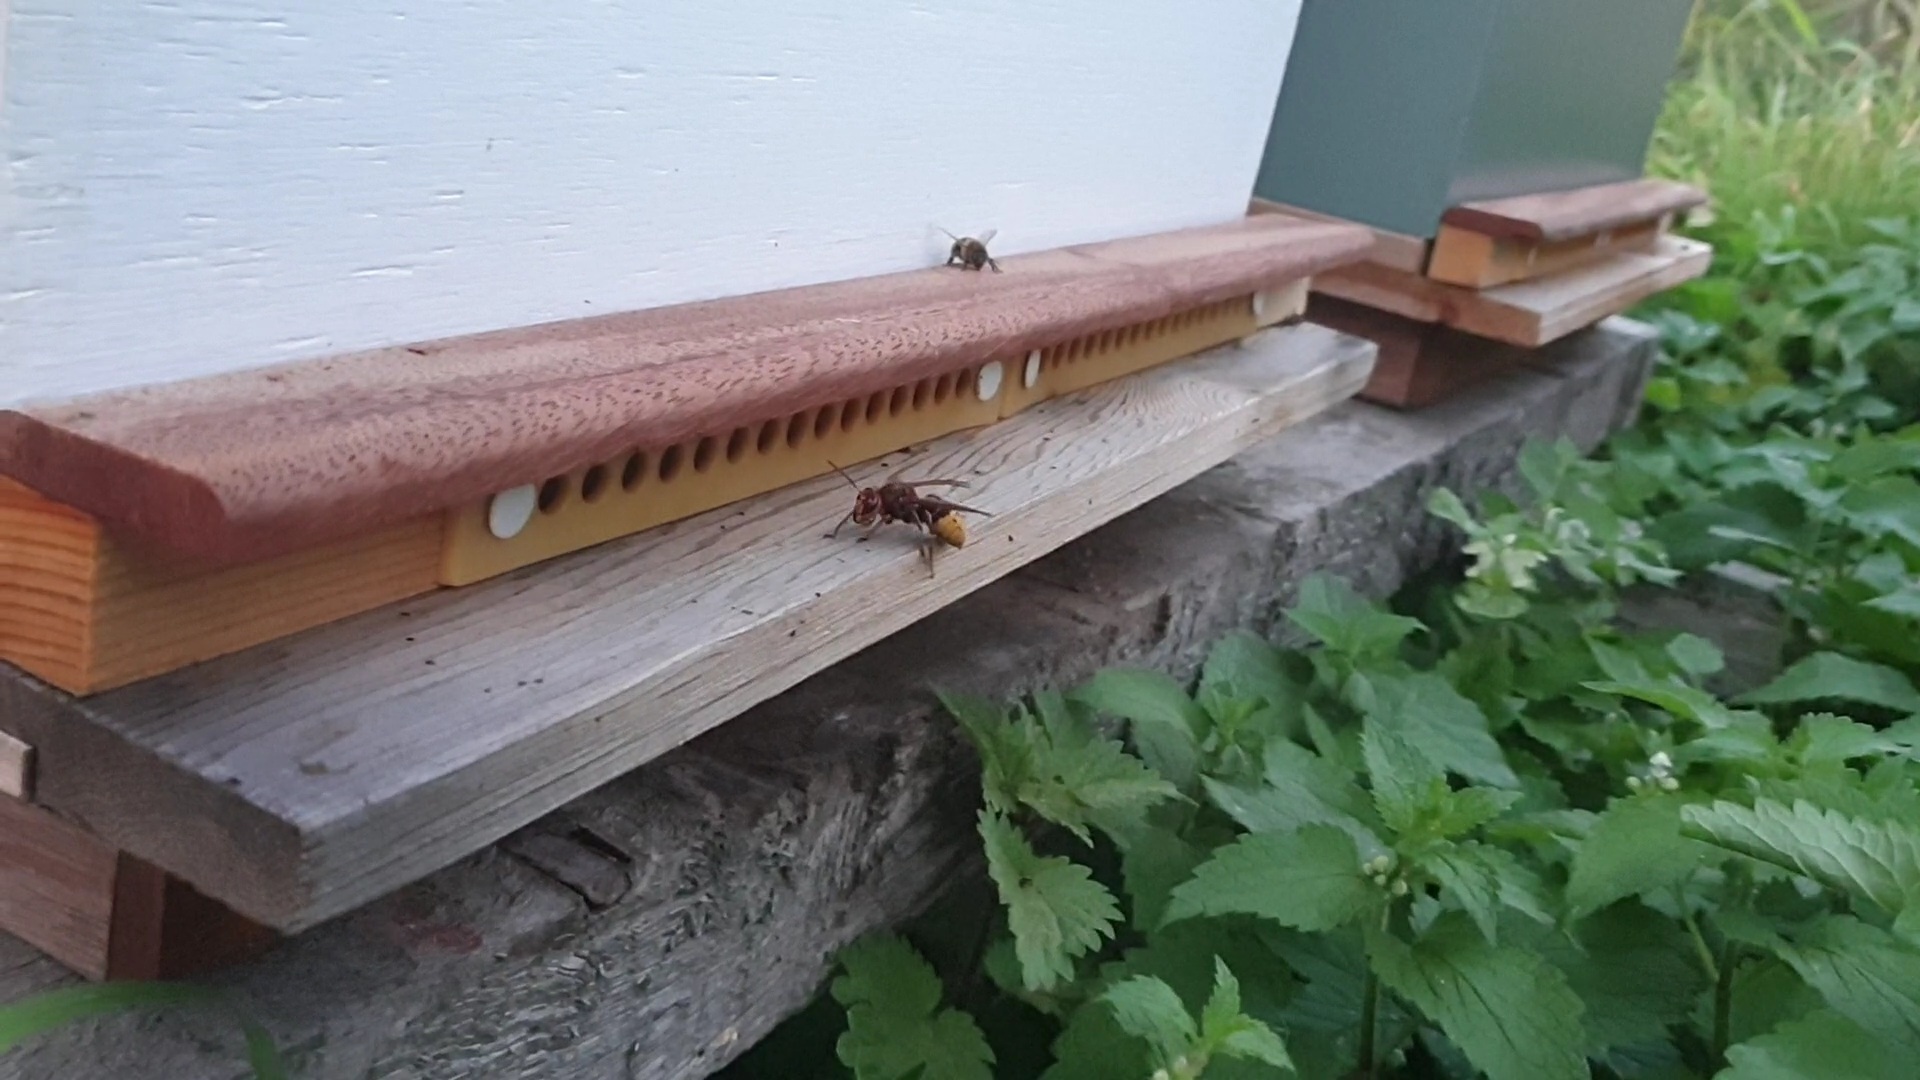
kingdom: Animalia
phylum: Arthropoda
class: Insecta
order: Hymenoptera
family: Vespidae
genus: Vespa
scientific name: Vespa crabro
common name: Hornet
